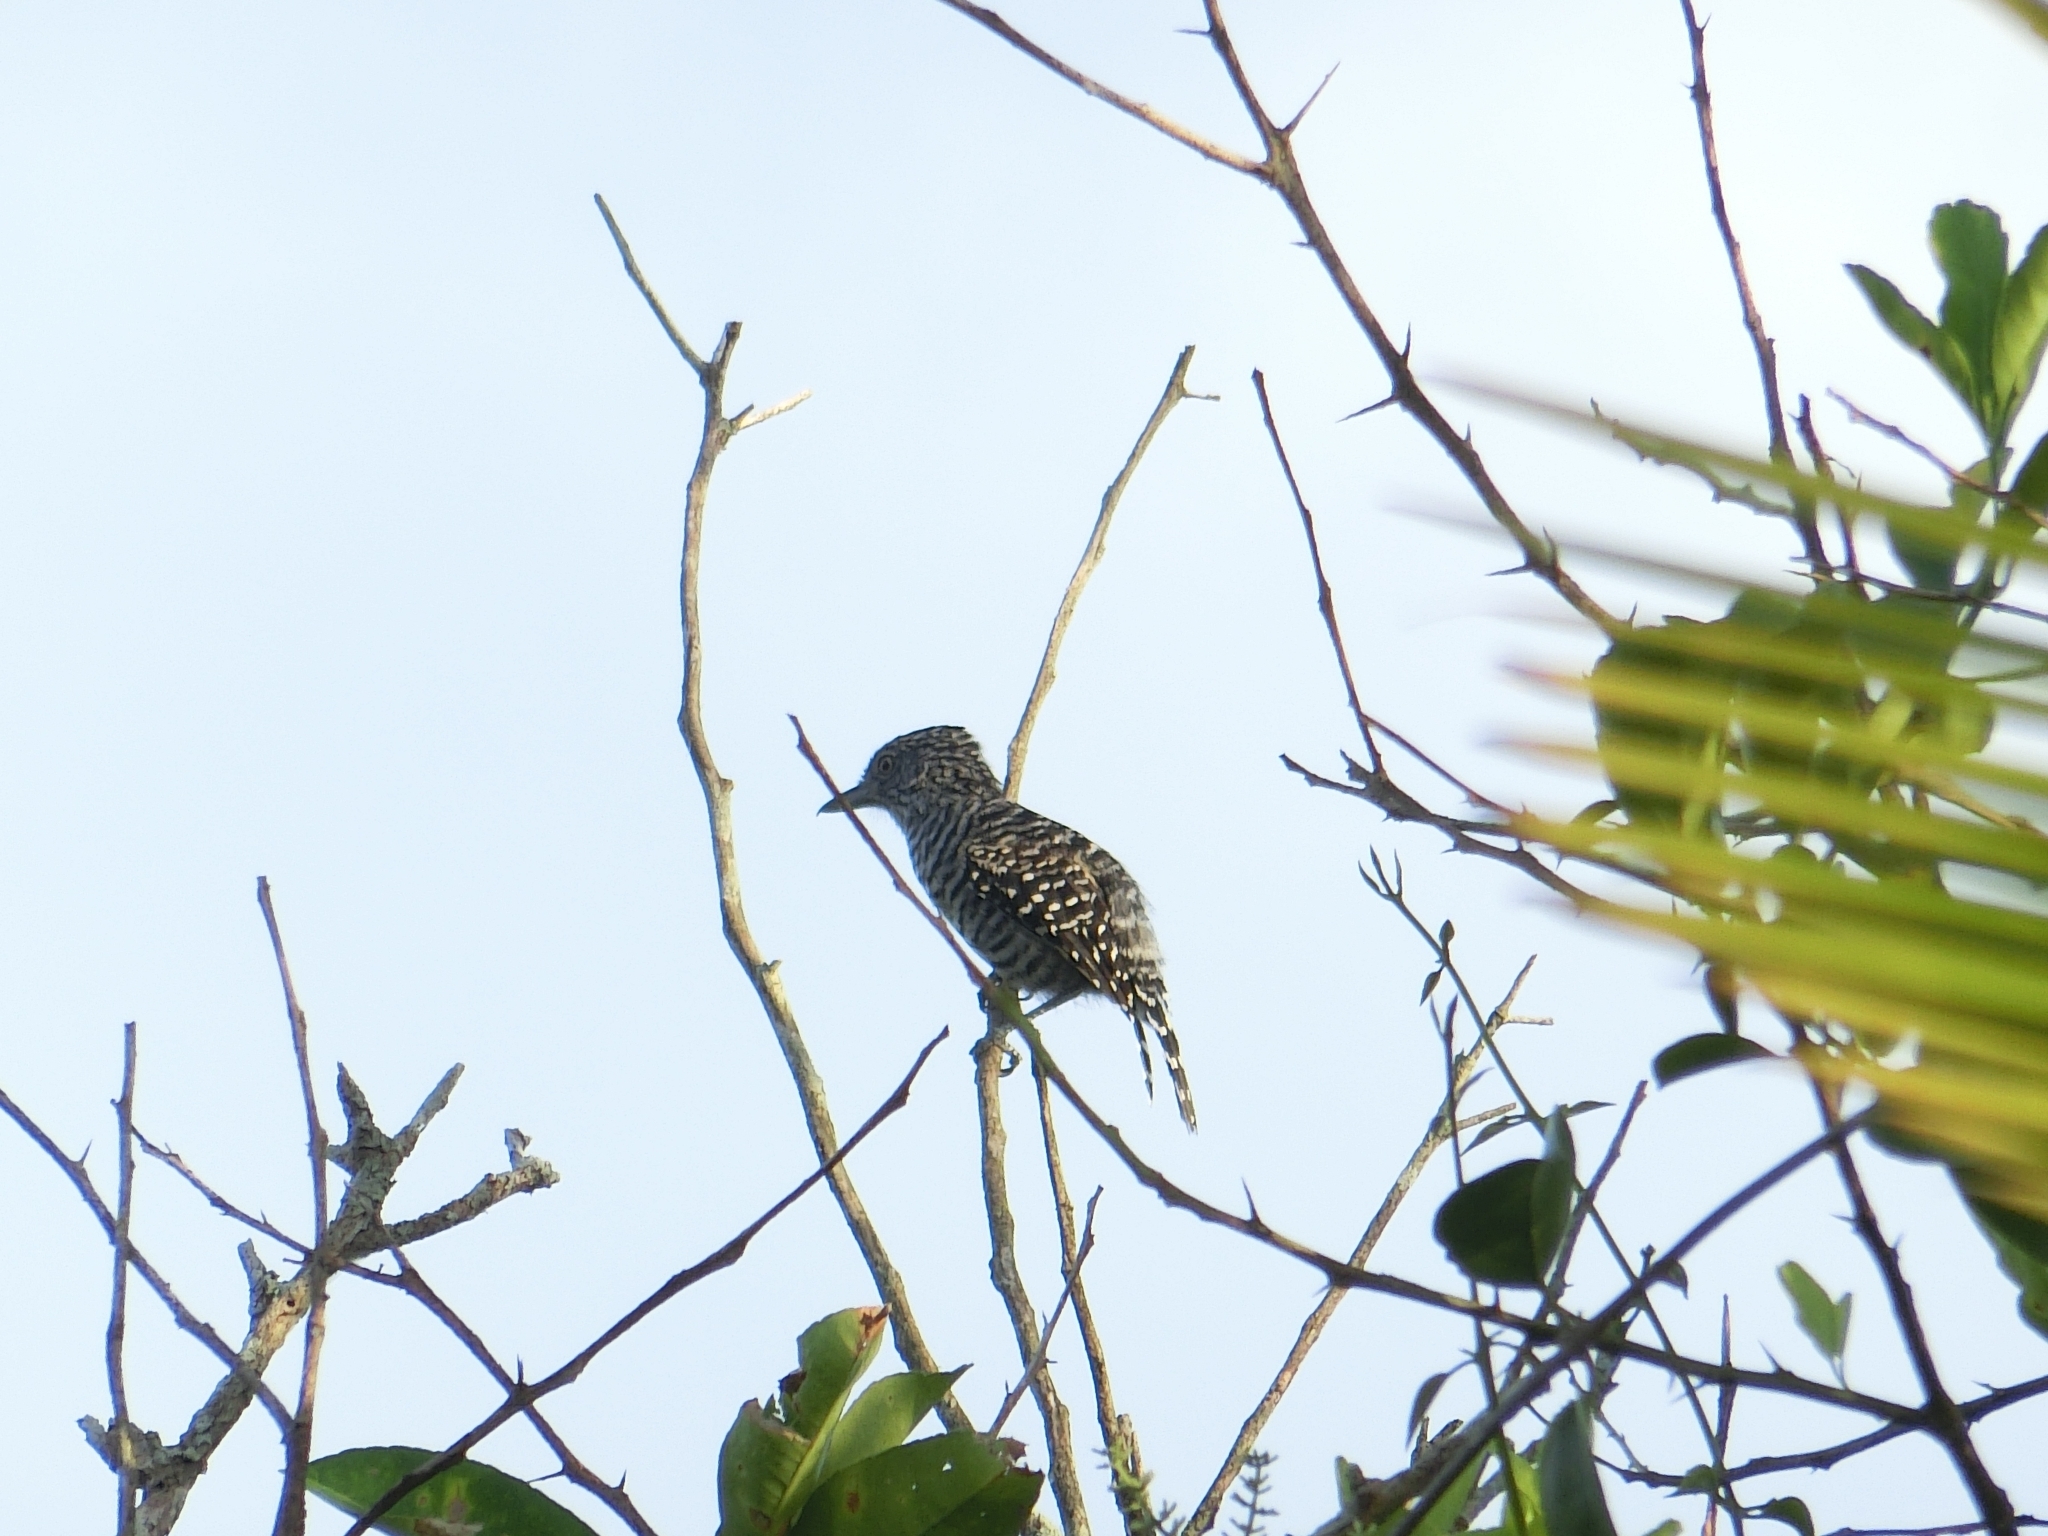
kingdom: Animalia
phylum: Chordata
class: Aves
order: Passeriformes
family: Thamnophilidae
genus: Thamnophilus
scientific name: Thamnophilus doliatus
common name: Barred antshrike
